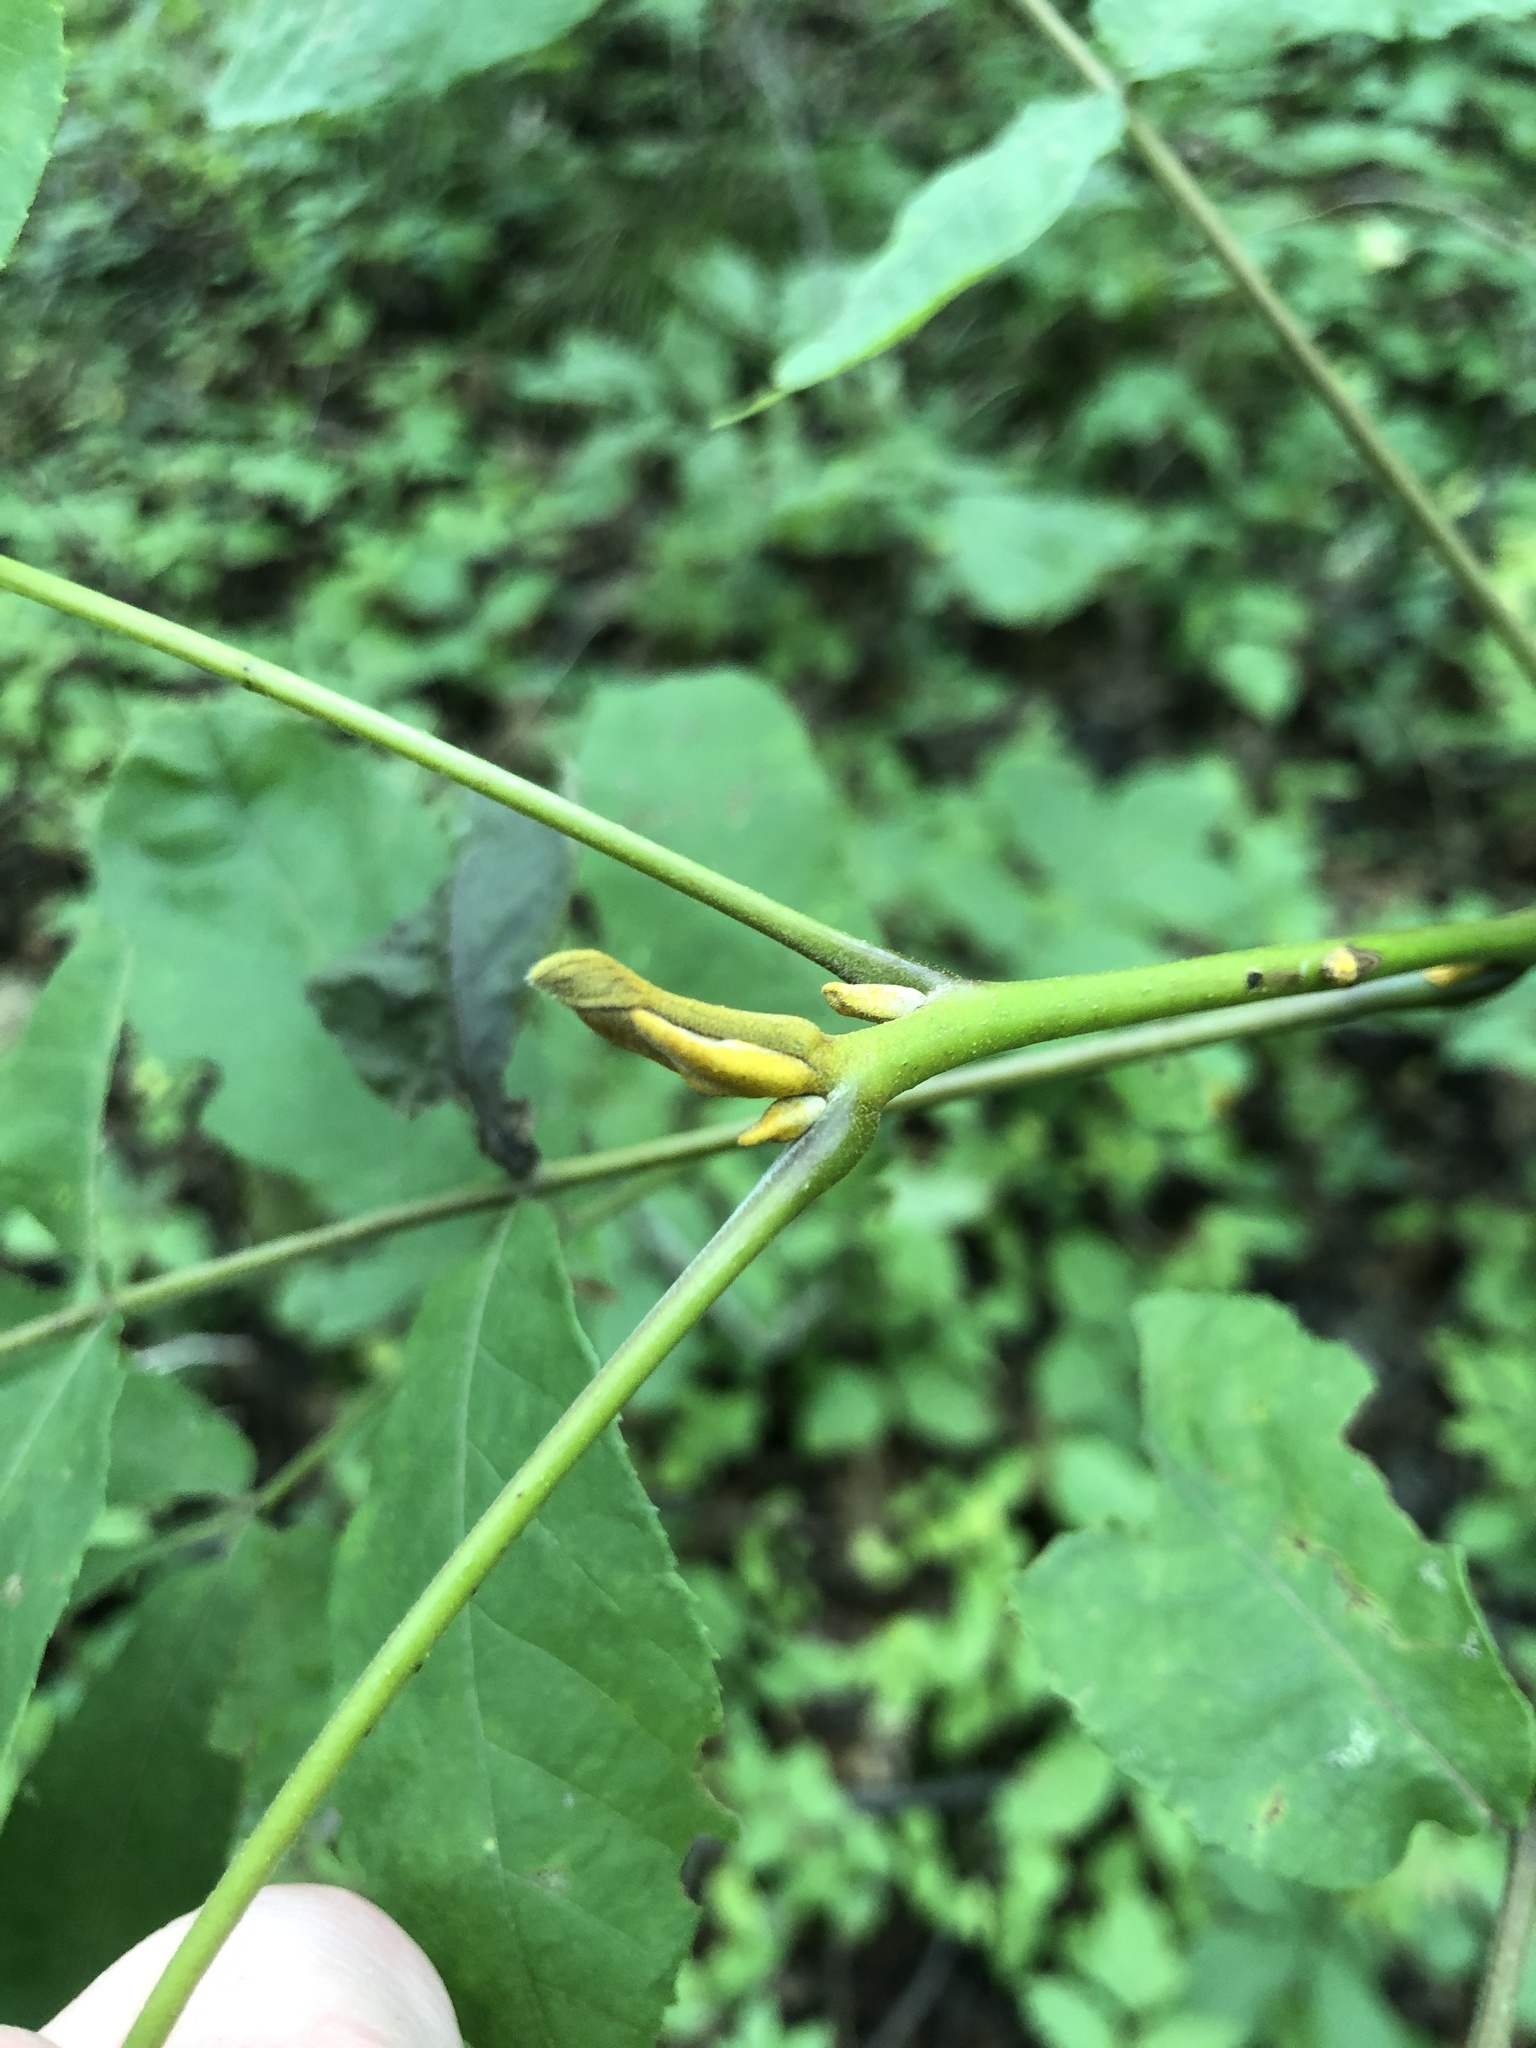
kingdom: Plantae
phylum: Tracheophyta
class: Magnoliopsida
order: Fagales
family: Juglandaceae
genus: Carya
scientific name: Carya cordiformis
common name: Bitternut hickory
